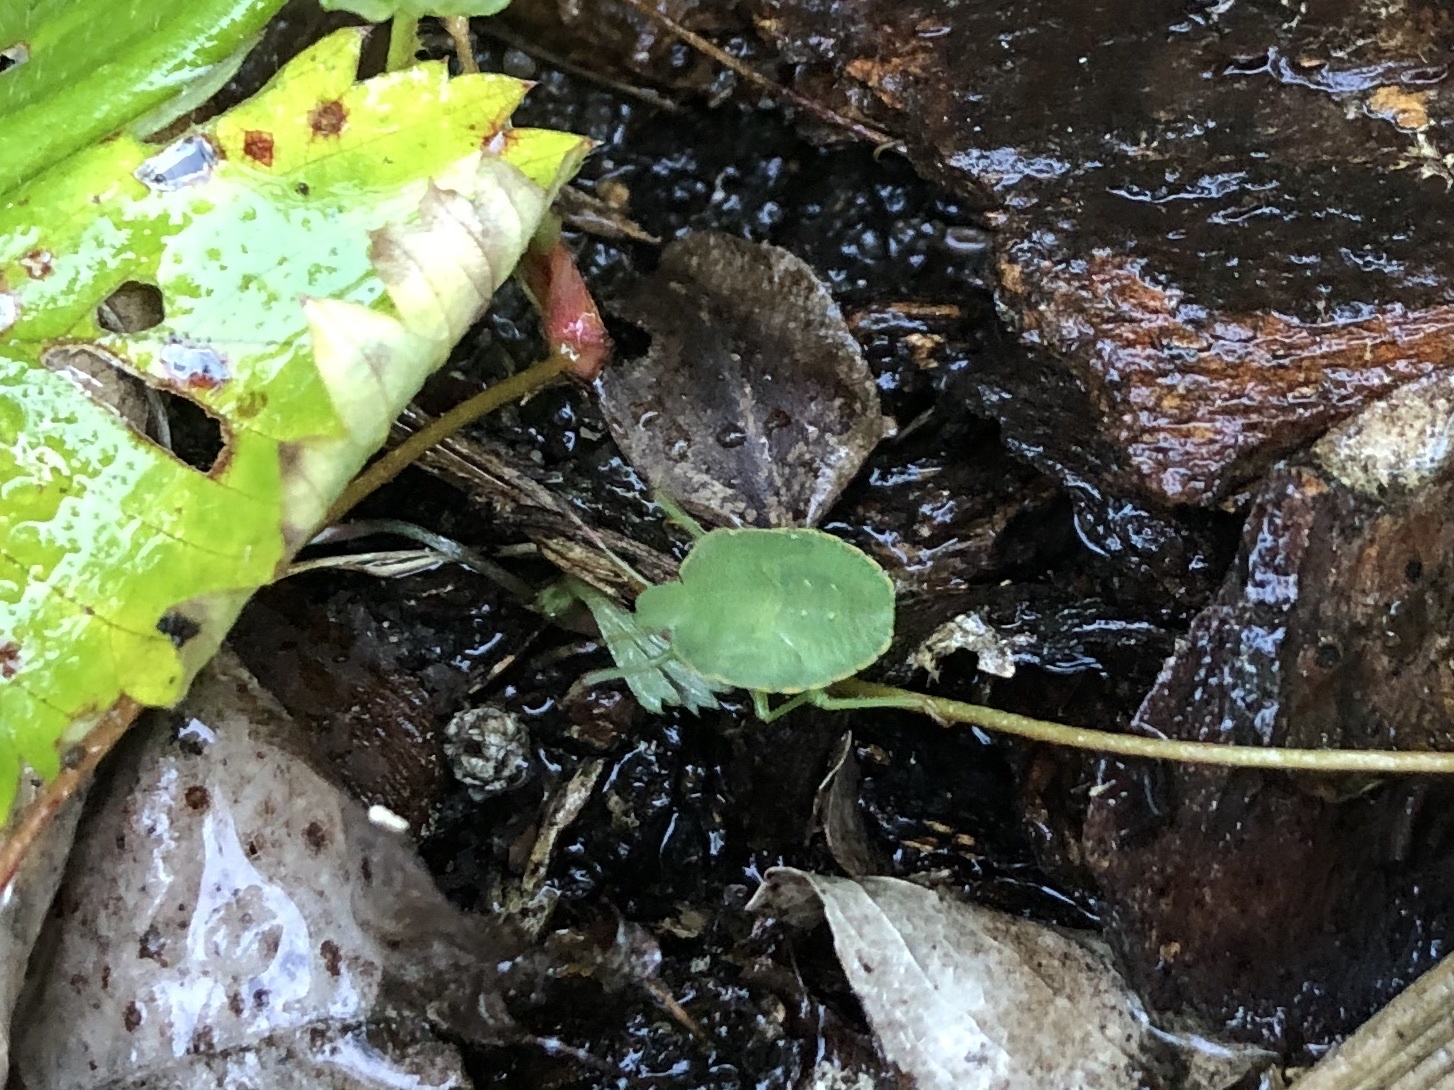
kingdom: Animalia
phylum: Arthropoda
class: Insecta
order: Hemiptera
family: Pentatomidae
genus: Palomena
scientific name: Palomena prasina
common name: Green shieldbug
